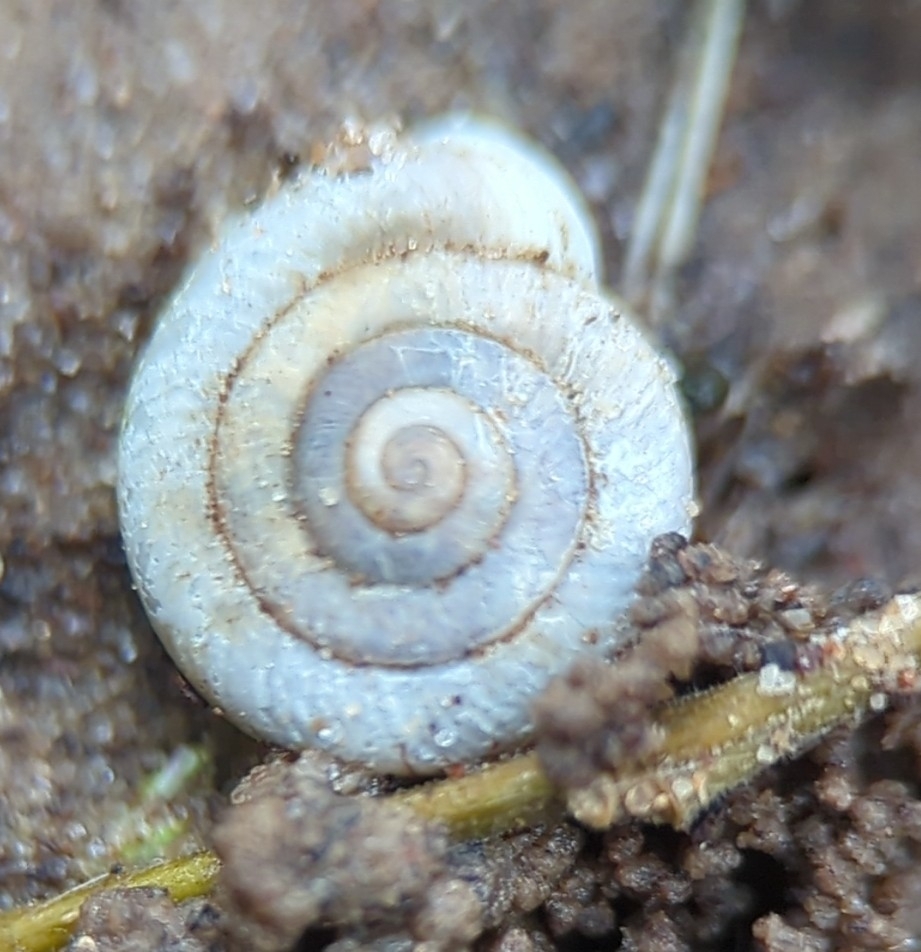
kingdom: Animalia
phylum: Mollusca
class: Gastropoda
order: Stylommatophora
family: Polygyridae
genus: Linisa
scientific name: Linisa texasiana
